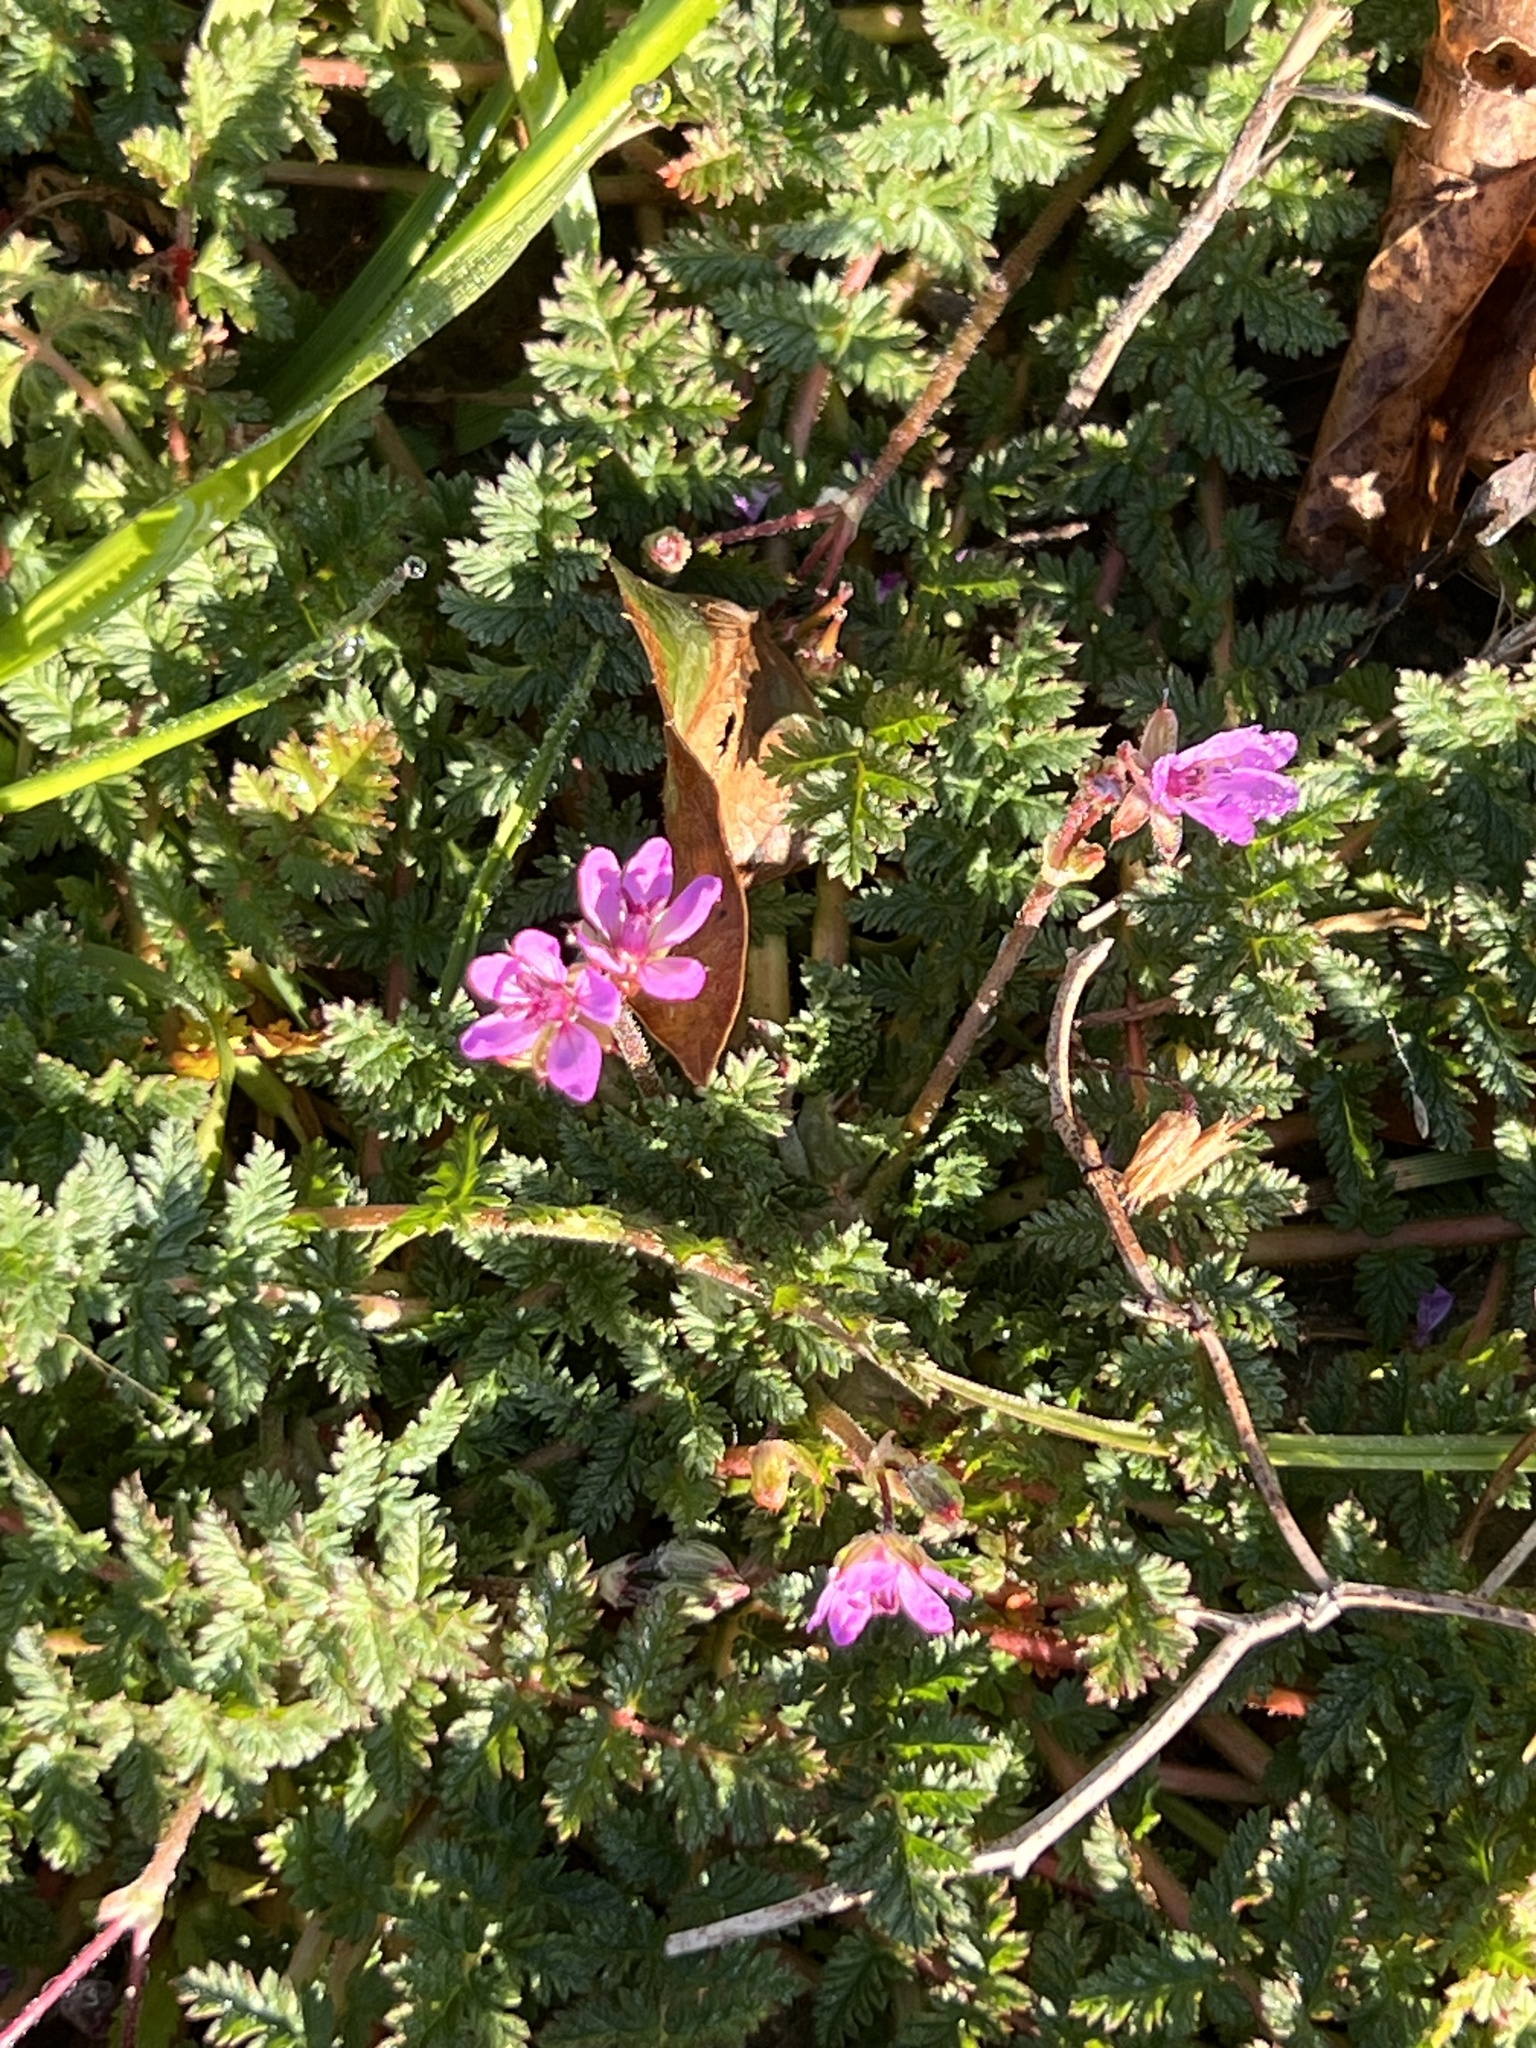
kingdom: Plantae
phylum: Tracheophyta
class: Magnoliopsida
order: Geraniales
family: Geraniaceae
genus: Erodium
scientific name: Erodium cicutarium
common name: Common stork's-bill
